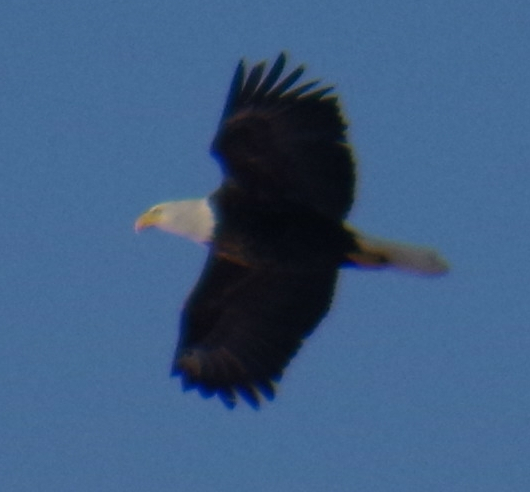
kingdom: Animalia
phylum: Chordata
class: Aves
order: Accipitriformes
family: Accipitridae
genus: Haliaeetus
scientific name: Haliaeetus leucocephalus
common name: Bald eagle
